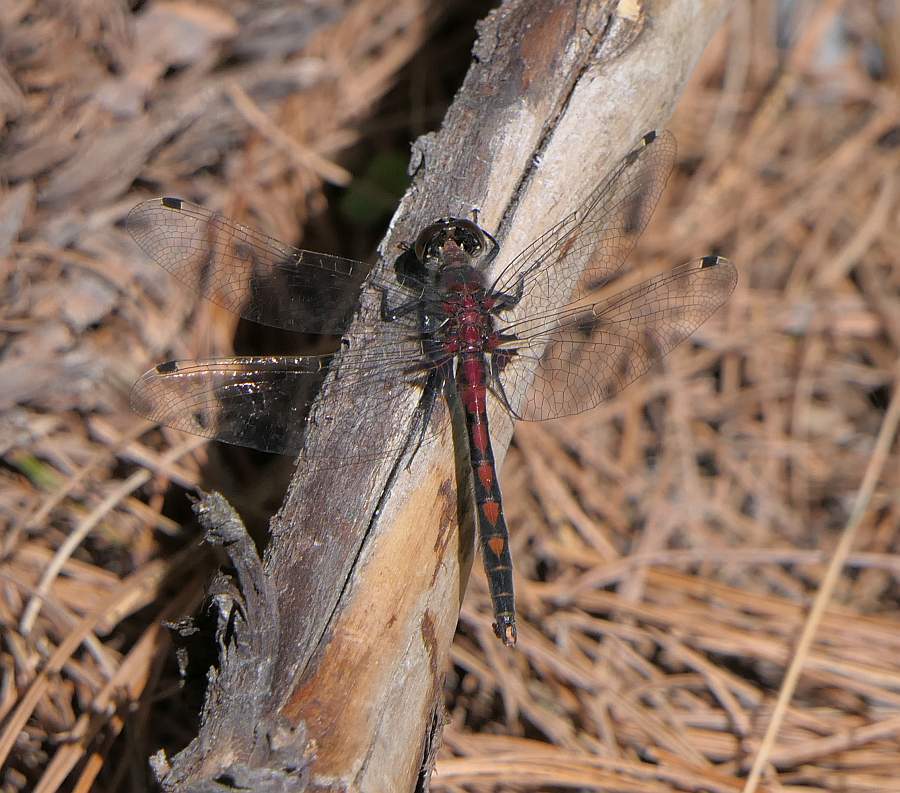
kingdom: Animalia
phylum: Arthropoda
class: Insecta
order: Odonata
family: Libellulidae
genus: Leucorrhinia
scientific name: Leucorrhinia hudsonica
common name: Hudsonian whiteface
